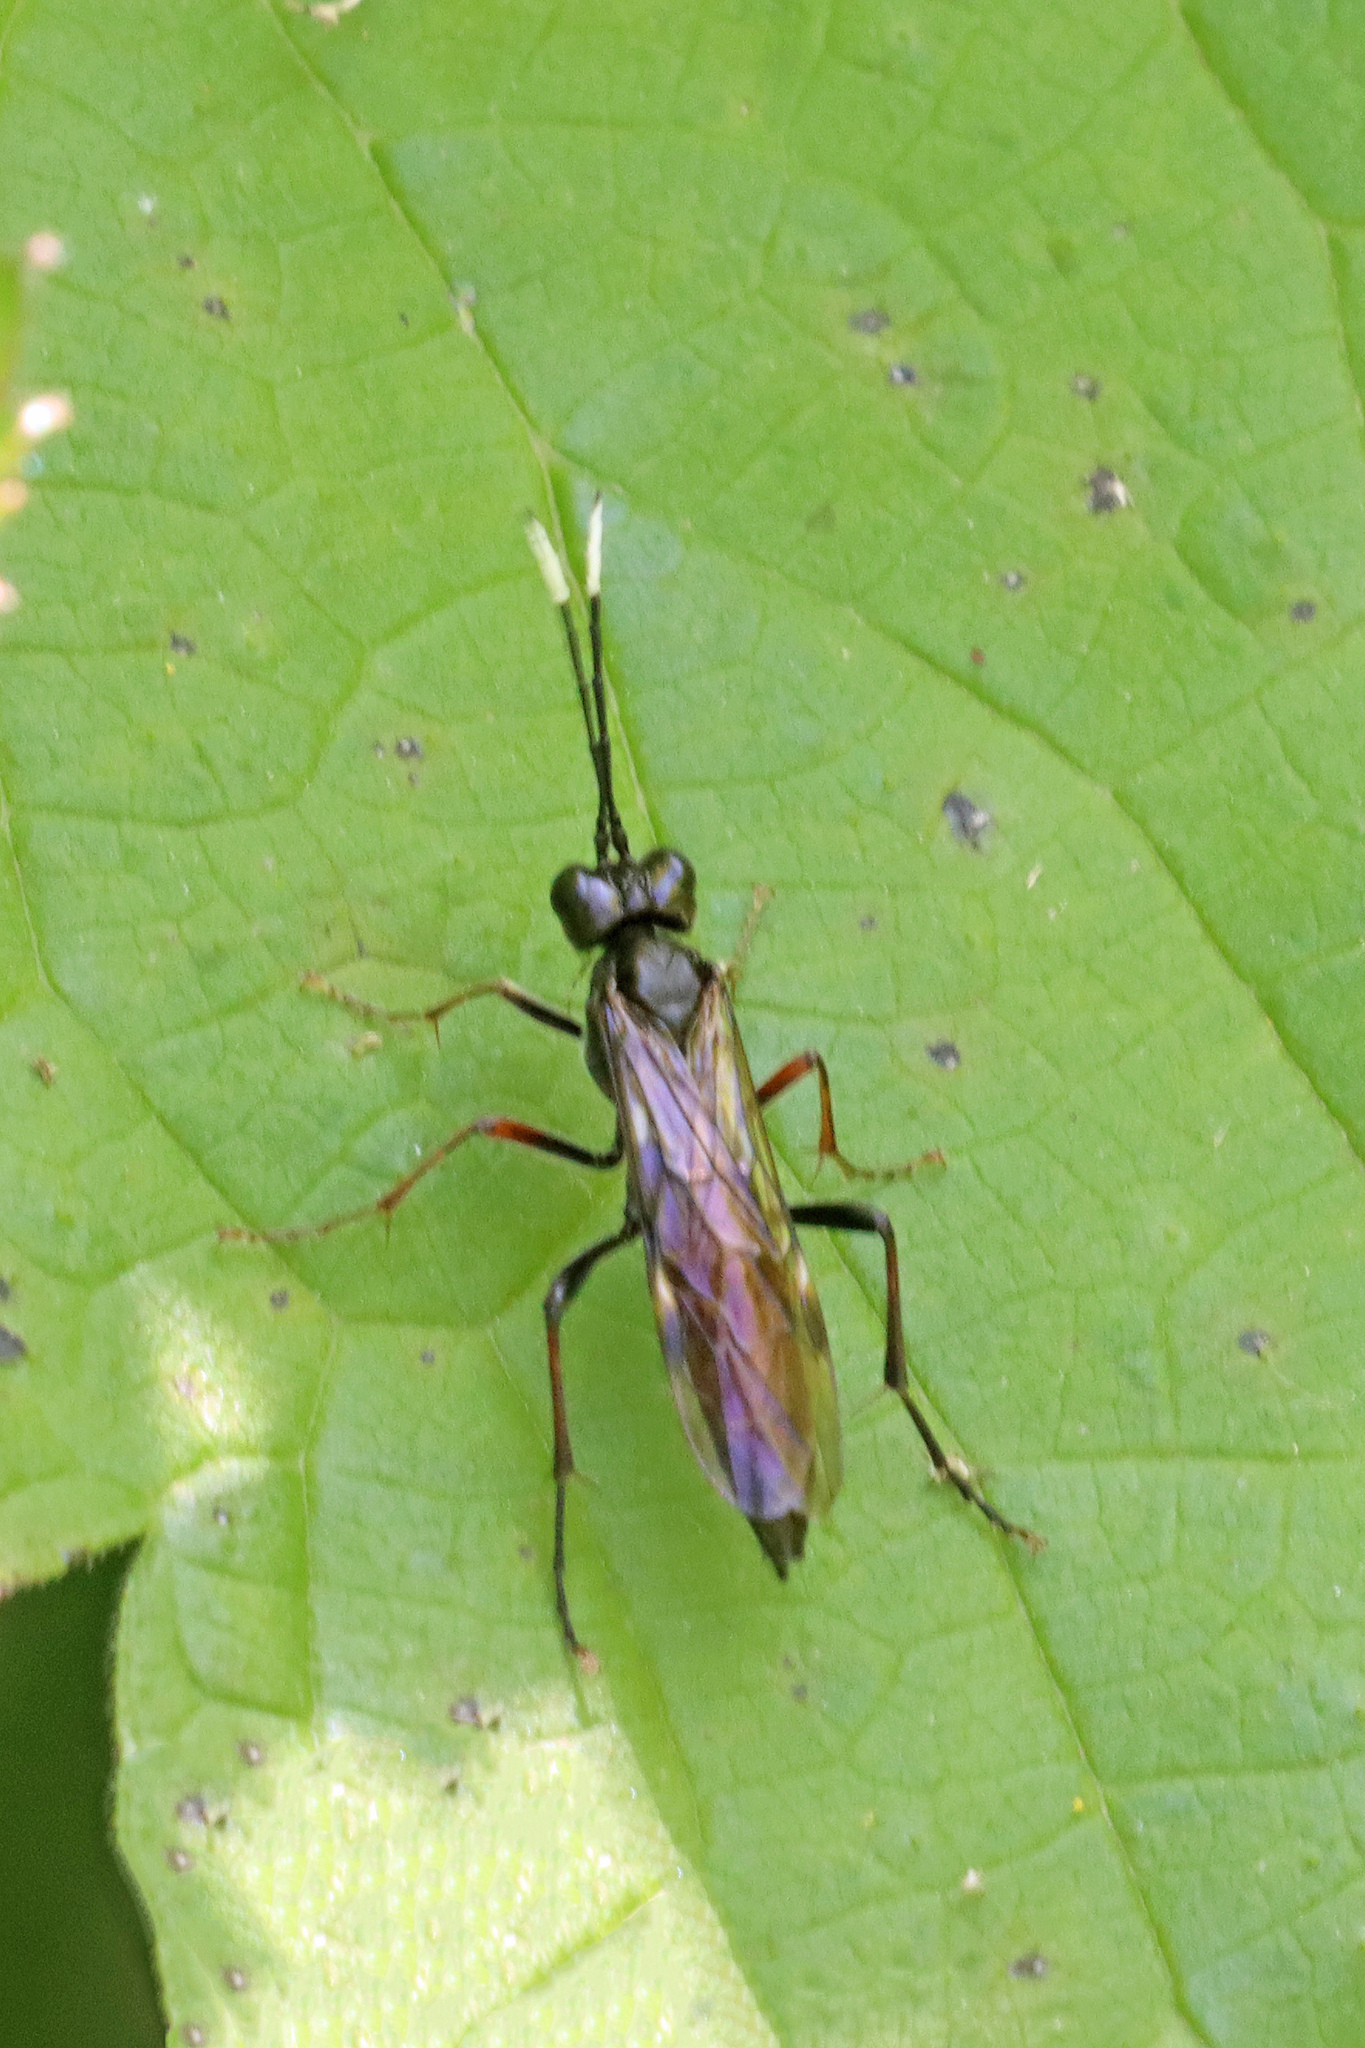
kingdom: Animalia
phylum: Arthropoda
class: Insecta
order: Hymenoptera
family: Tenthredinidae
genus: Tenthredo
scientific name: Tenthredo livida
